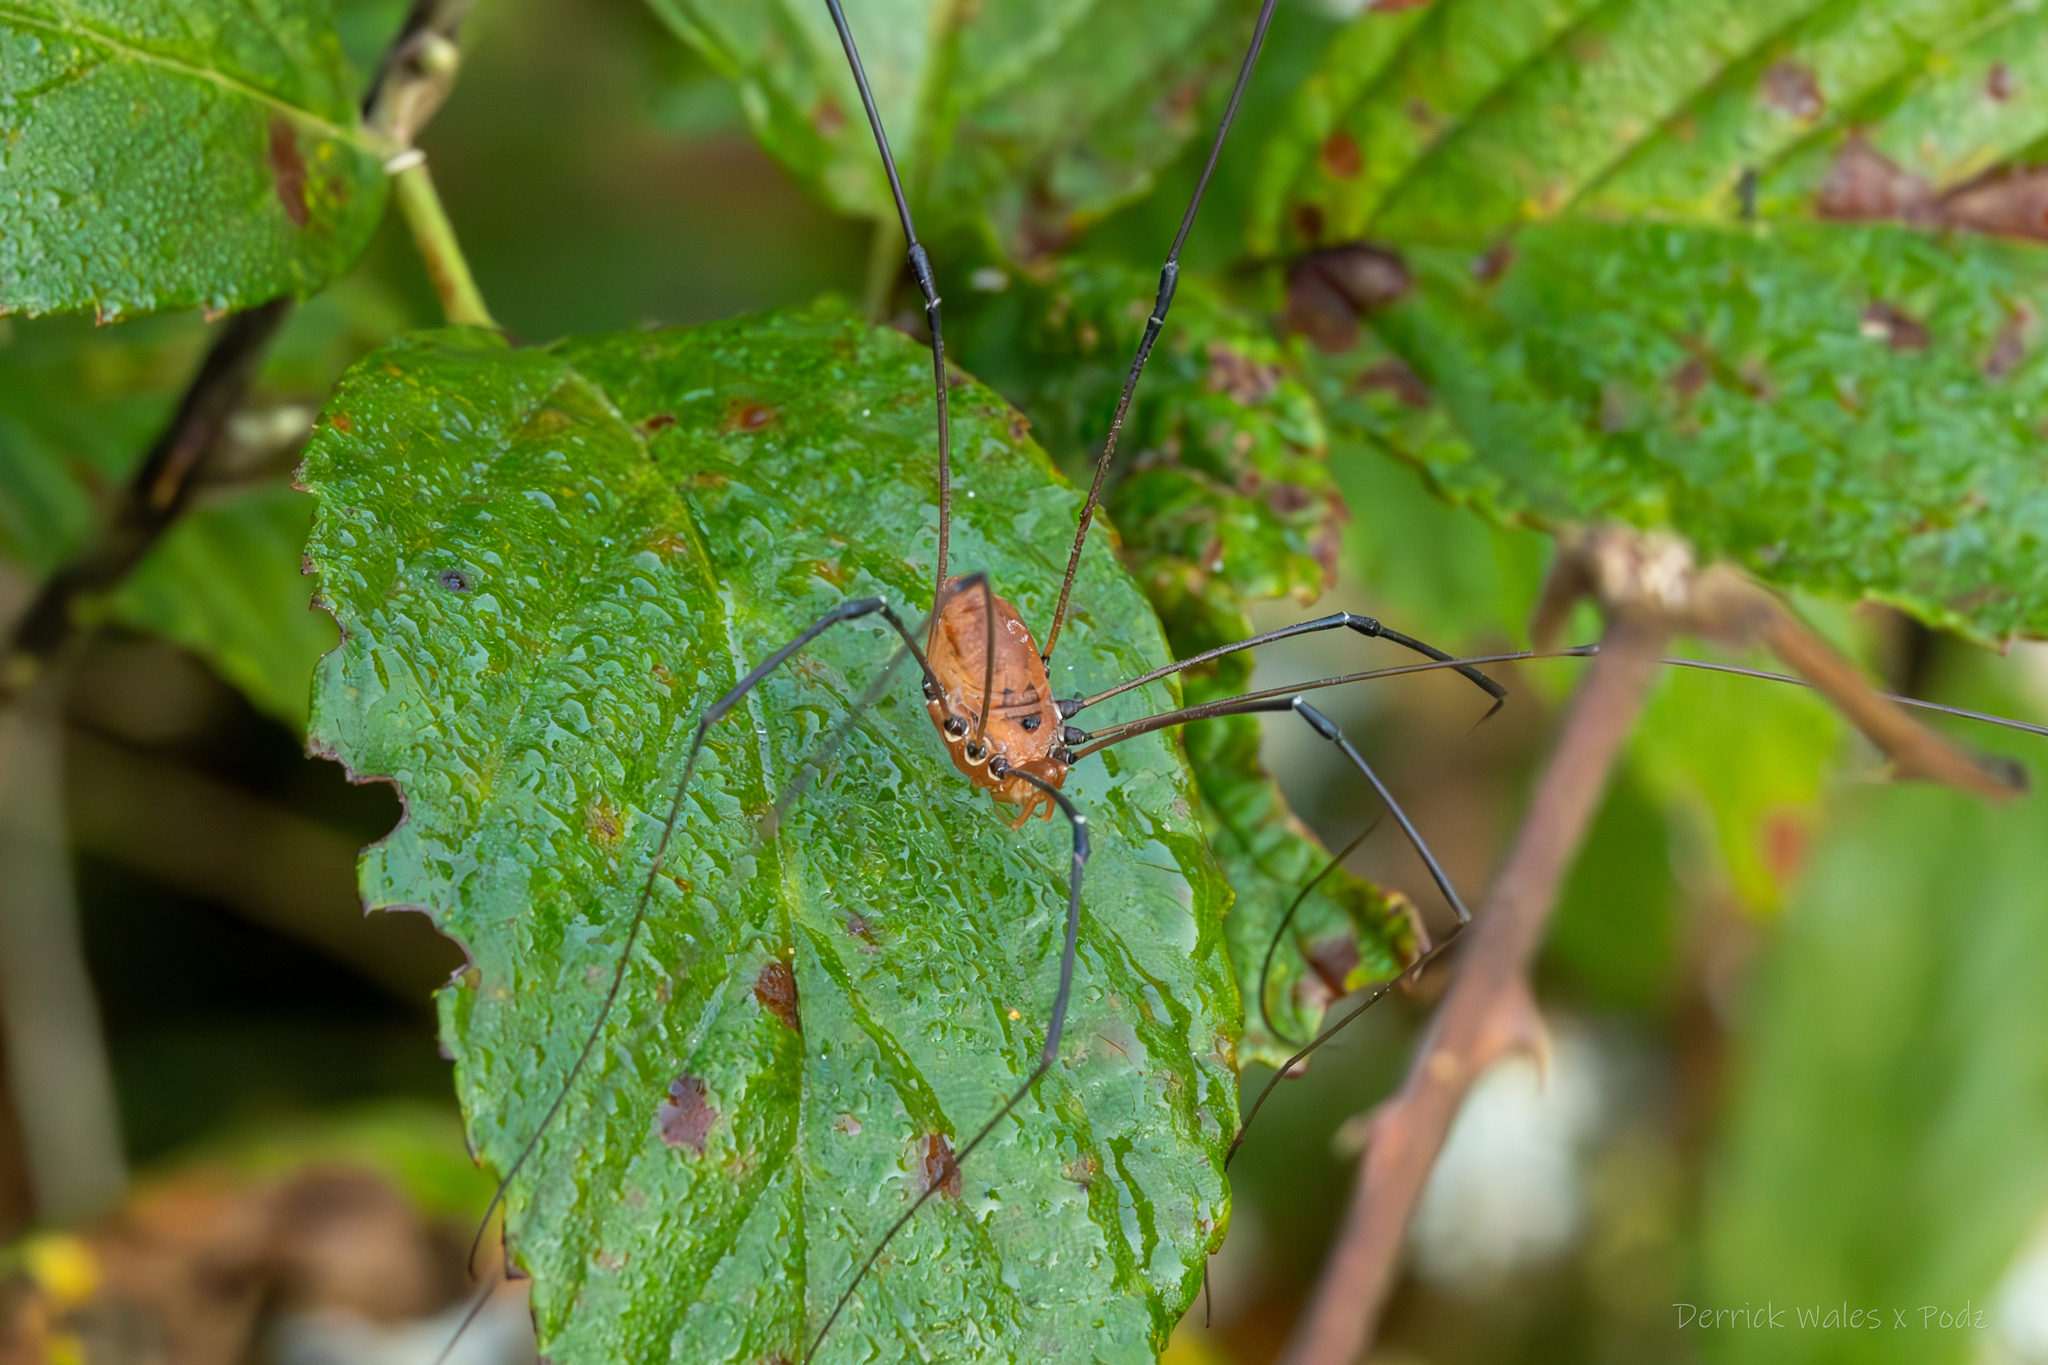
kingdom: Animalia
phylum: Arthropoda
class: Arachnida
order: Opiliones
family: Sclerosomatidae
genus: Leiobunum
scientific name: Leiobunum vittatum
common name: Eastern harvestman
